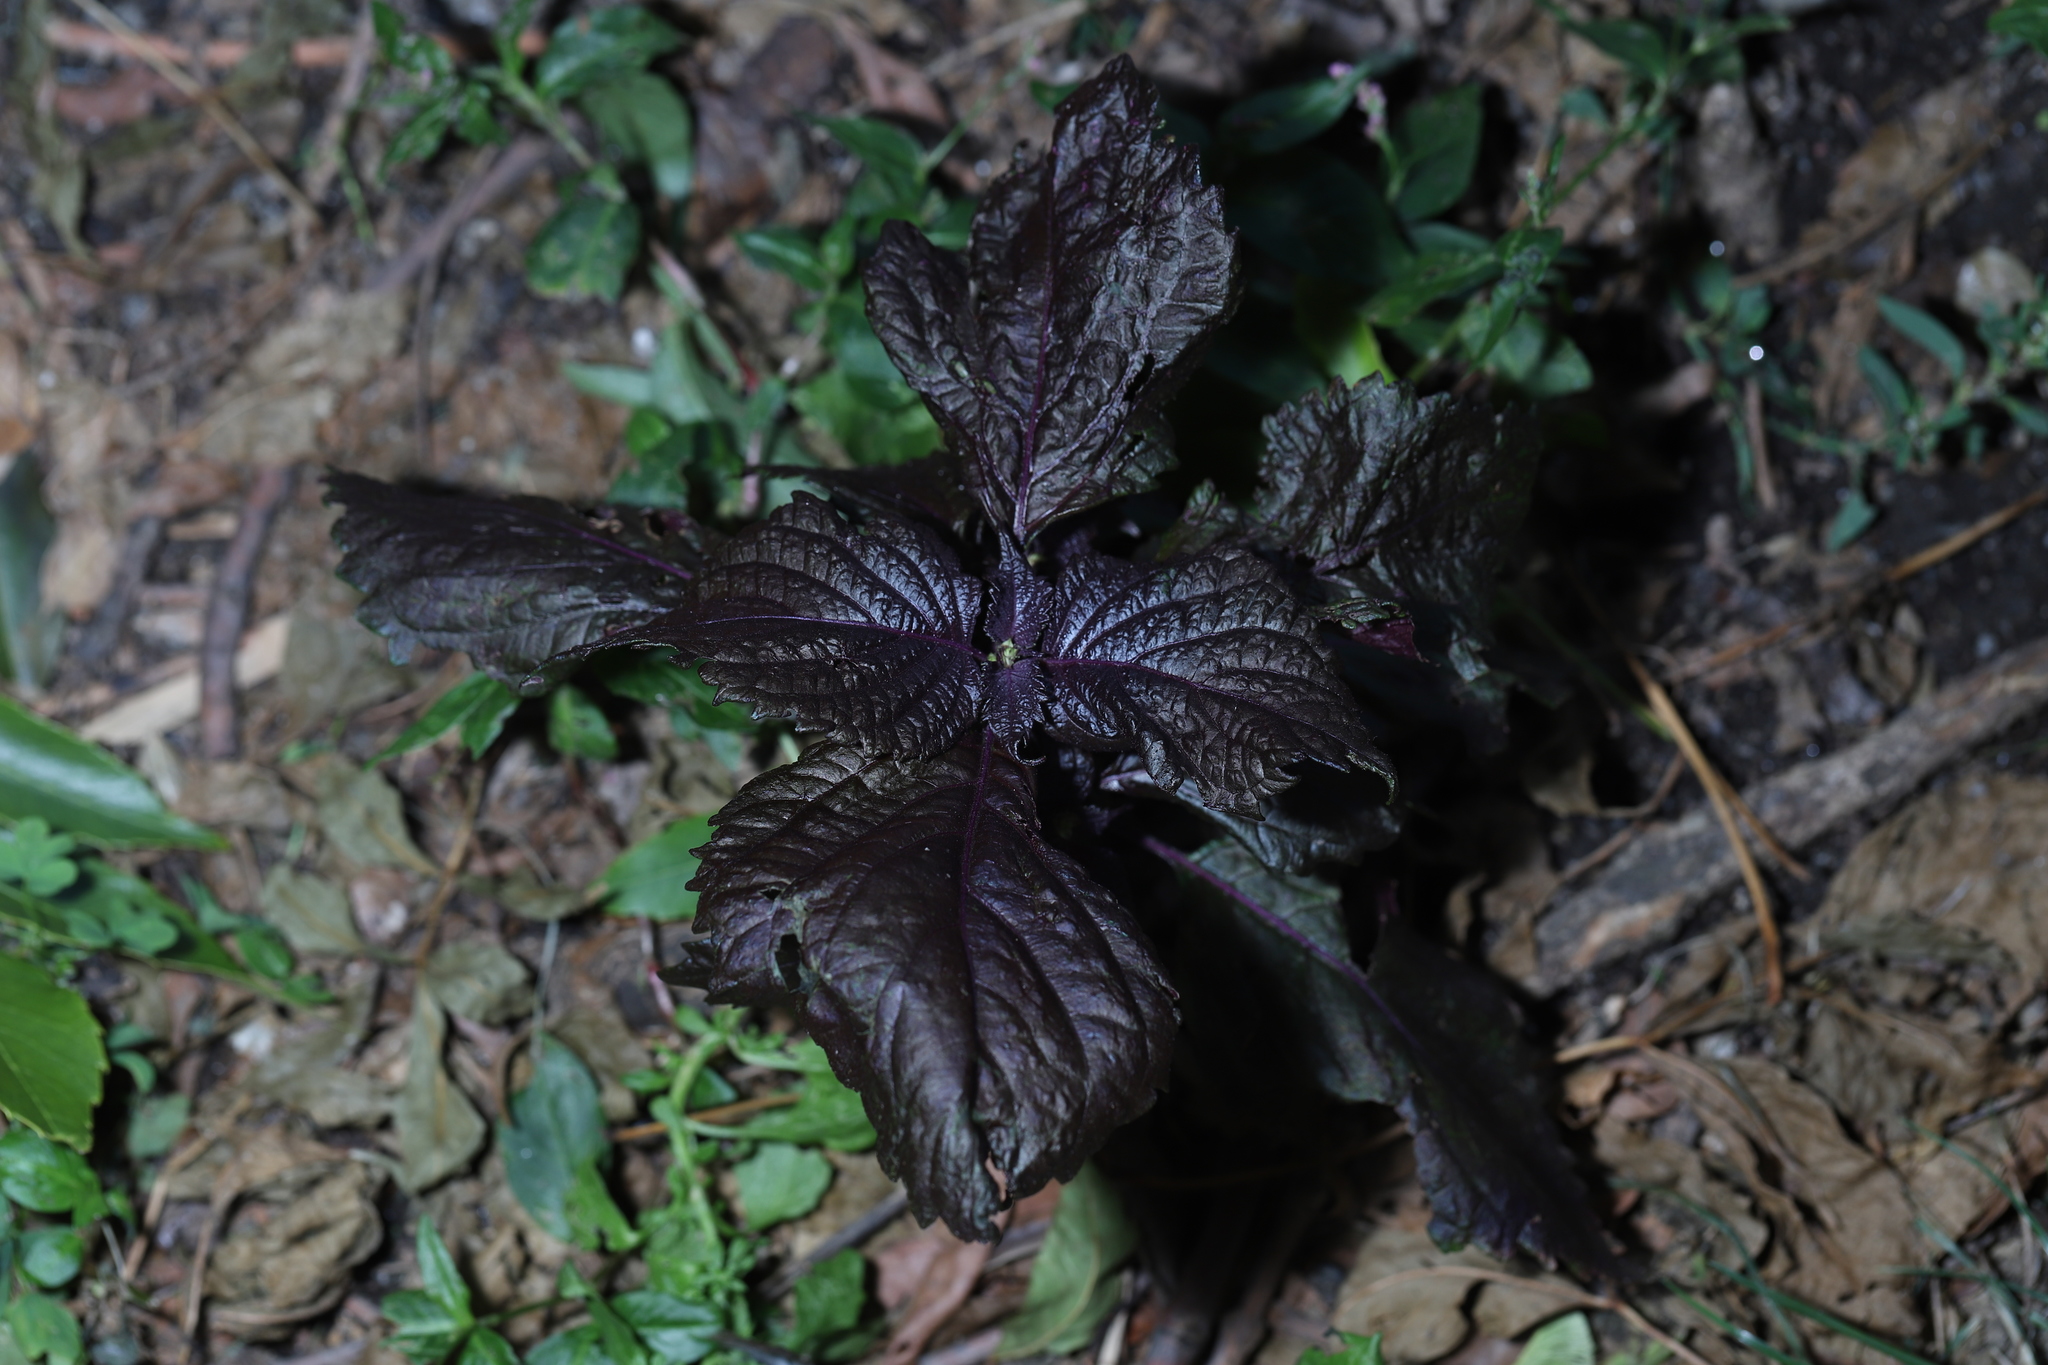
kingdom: Plantae
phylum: Tracheophyta
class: Magnoliopsida
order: Lamiales
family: Lamiaceae
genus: Perilla
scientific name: Perilla frutescens
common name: Perilla
